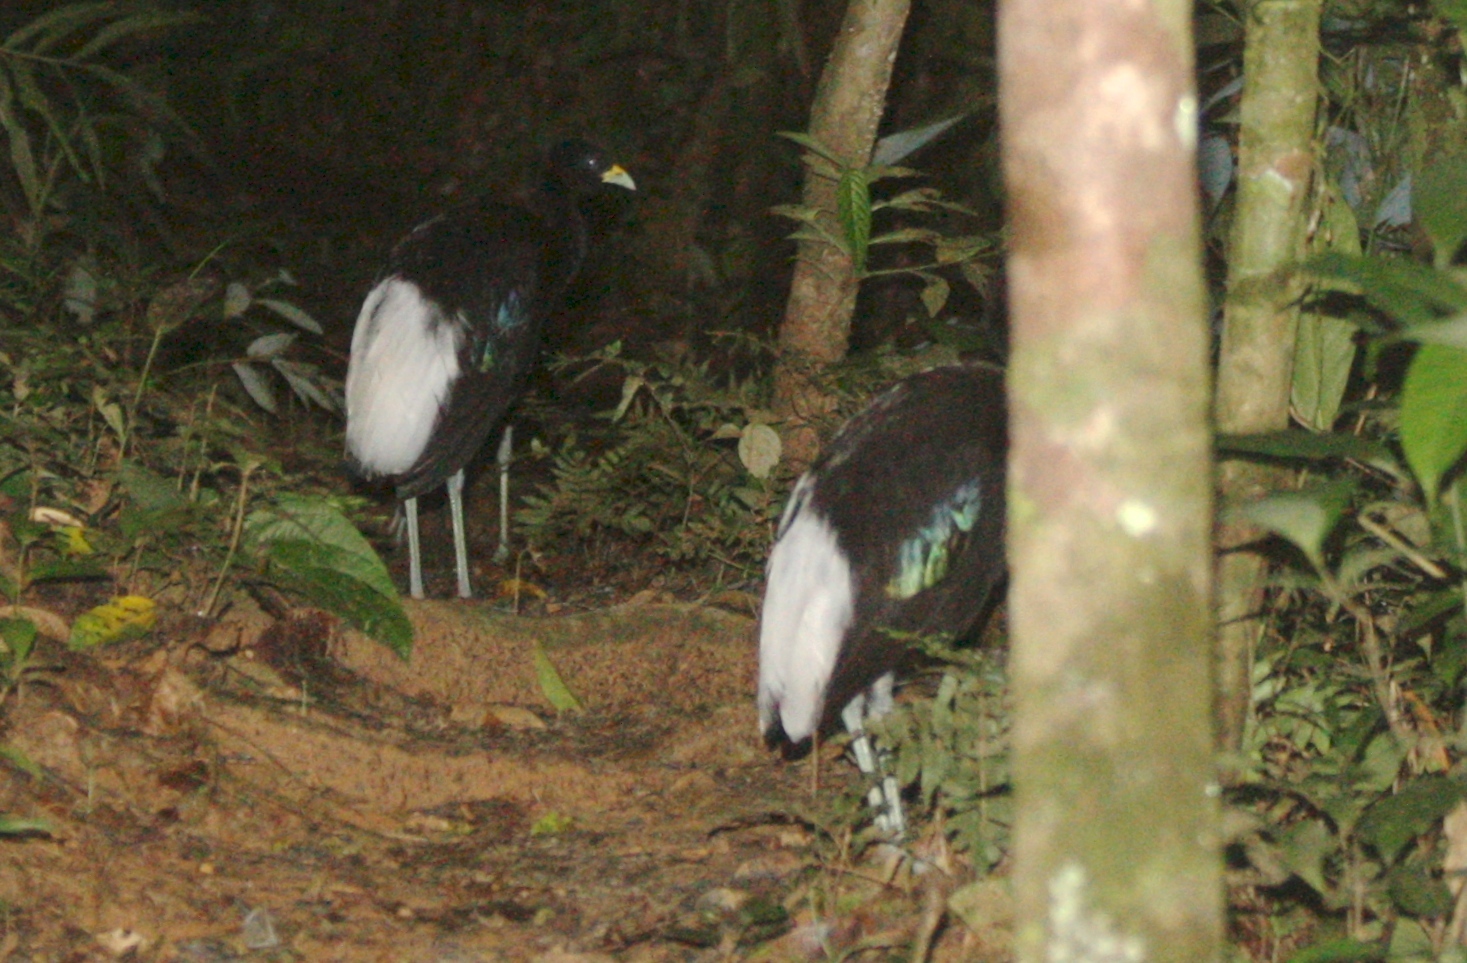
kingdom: Animalia
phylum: Chordata
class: Aves
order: Gruiformes
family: Psophiidae
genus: Psophia
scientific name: Psophia leucoptera
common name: Pale-winged trumpeter
